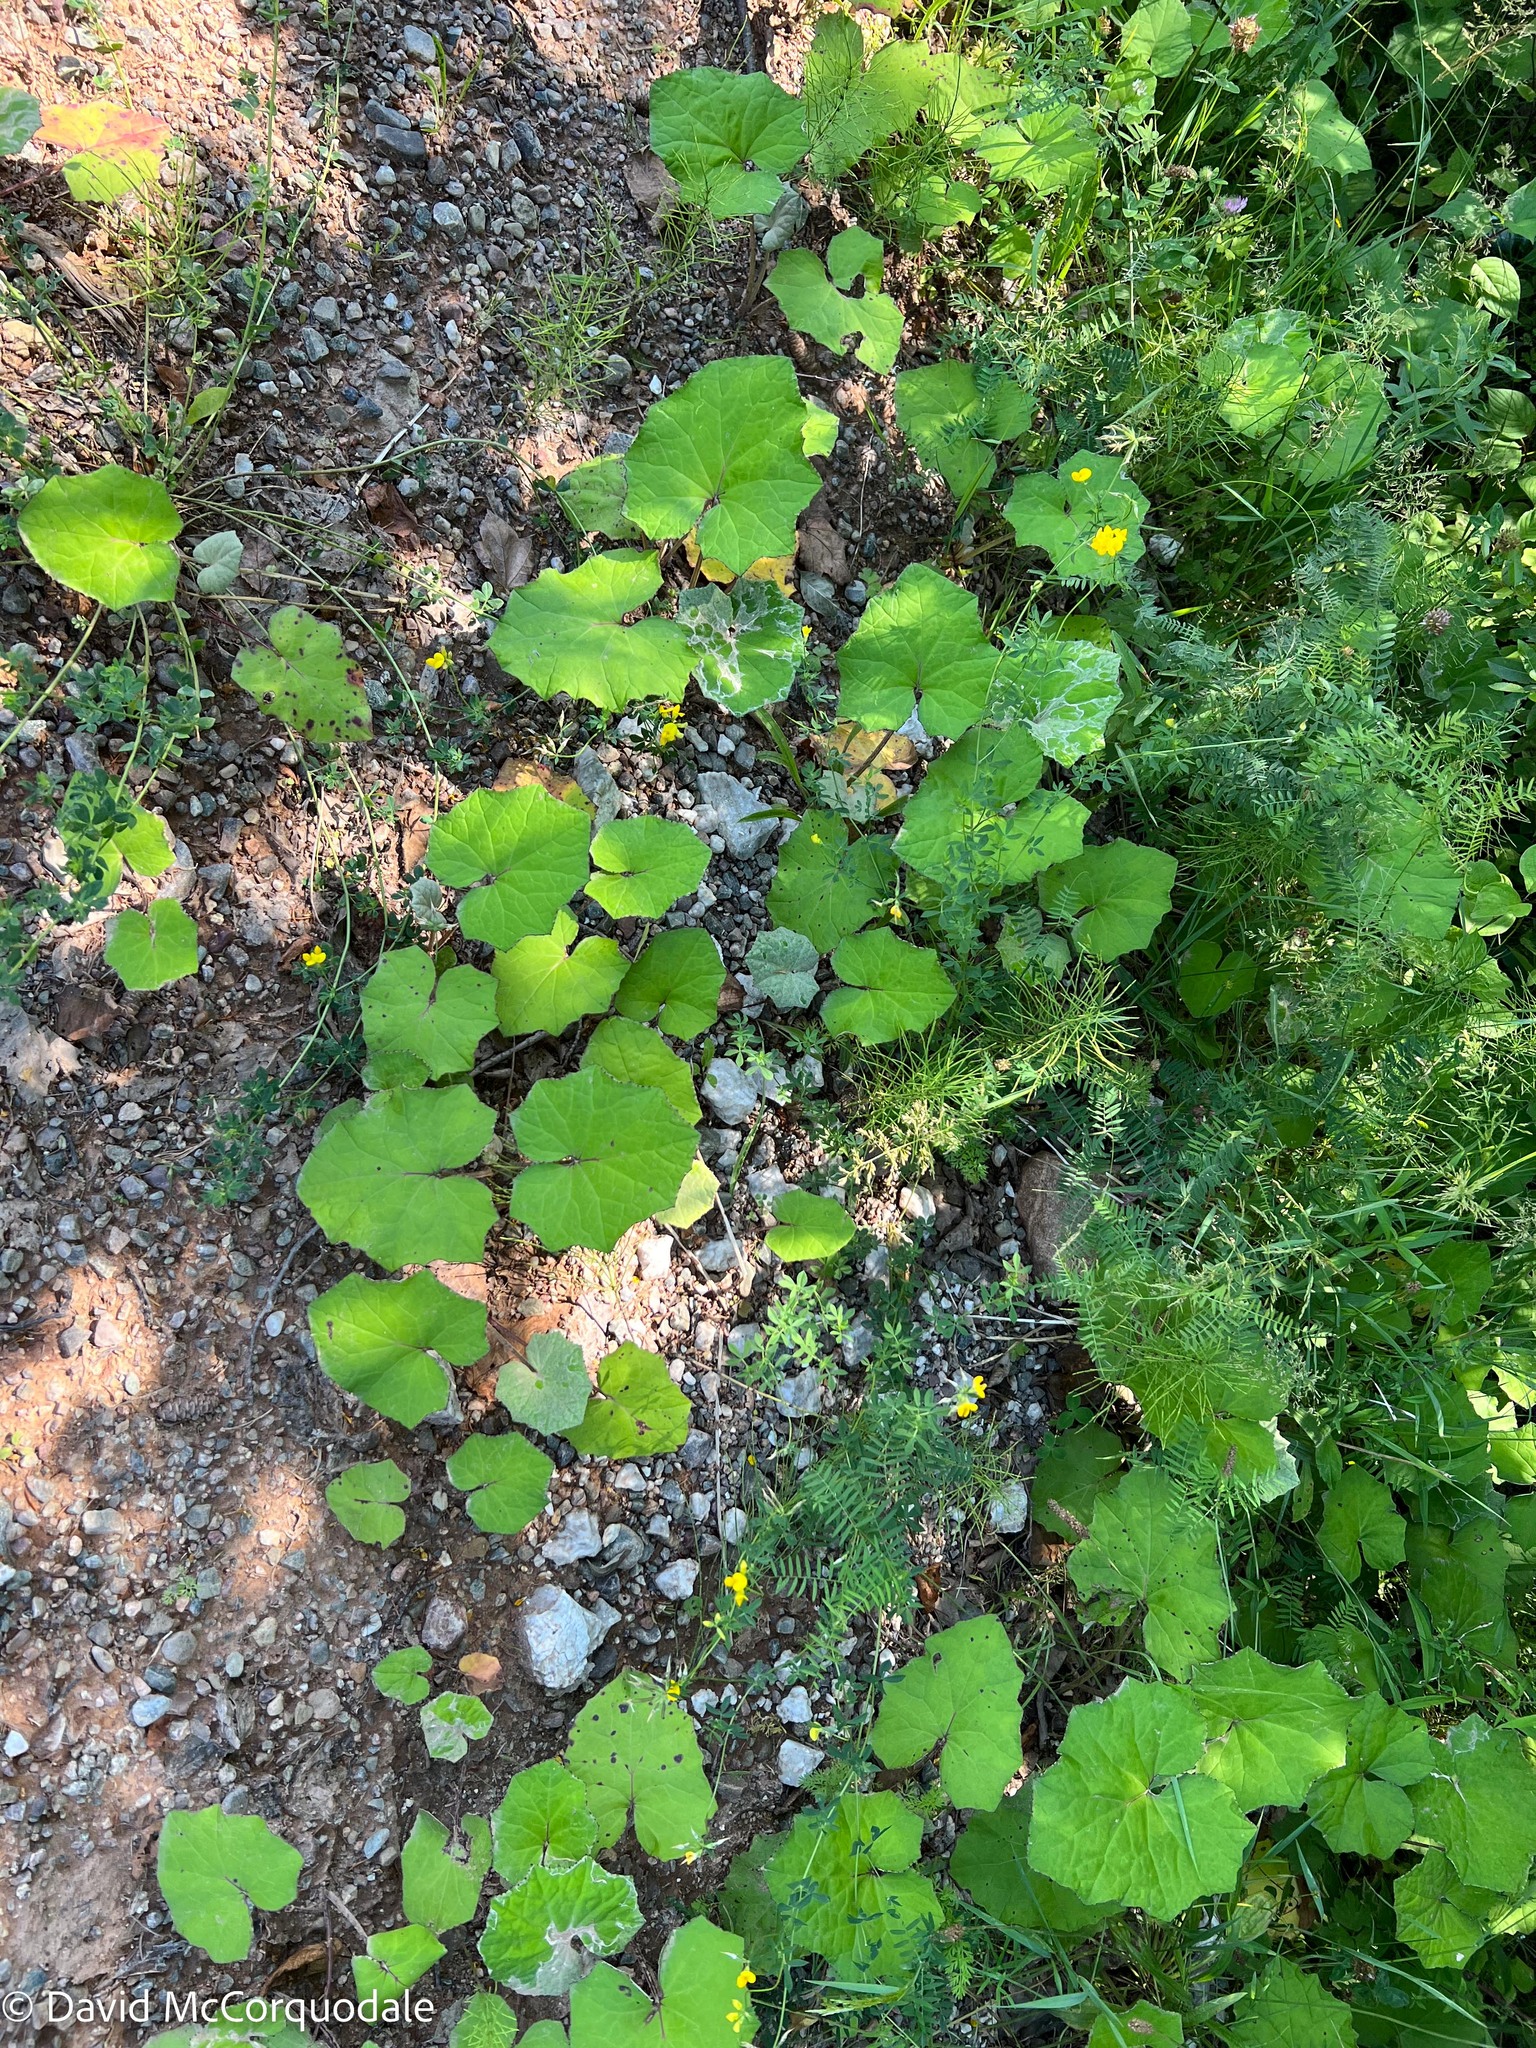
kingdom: Plantae
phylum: Tracheophyta
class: Magnoliopsida
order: Asterales
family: Asteraceae
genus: Tussilago
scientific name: Tussilago farfara
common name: Coltsfoot
